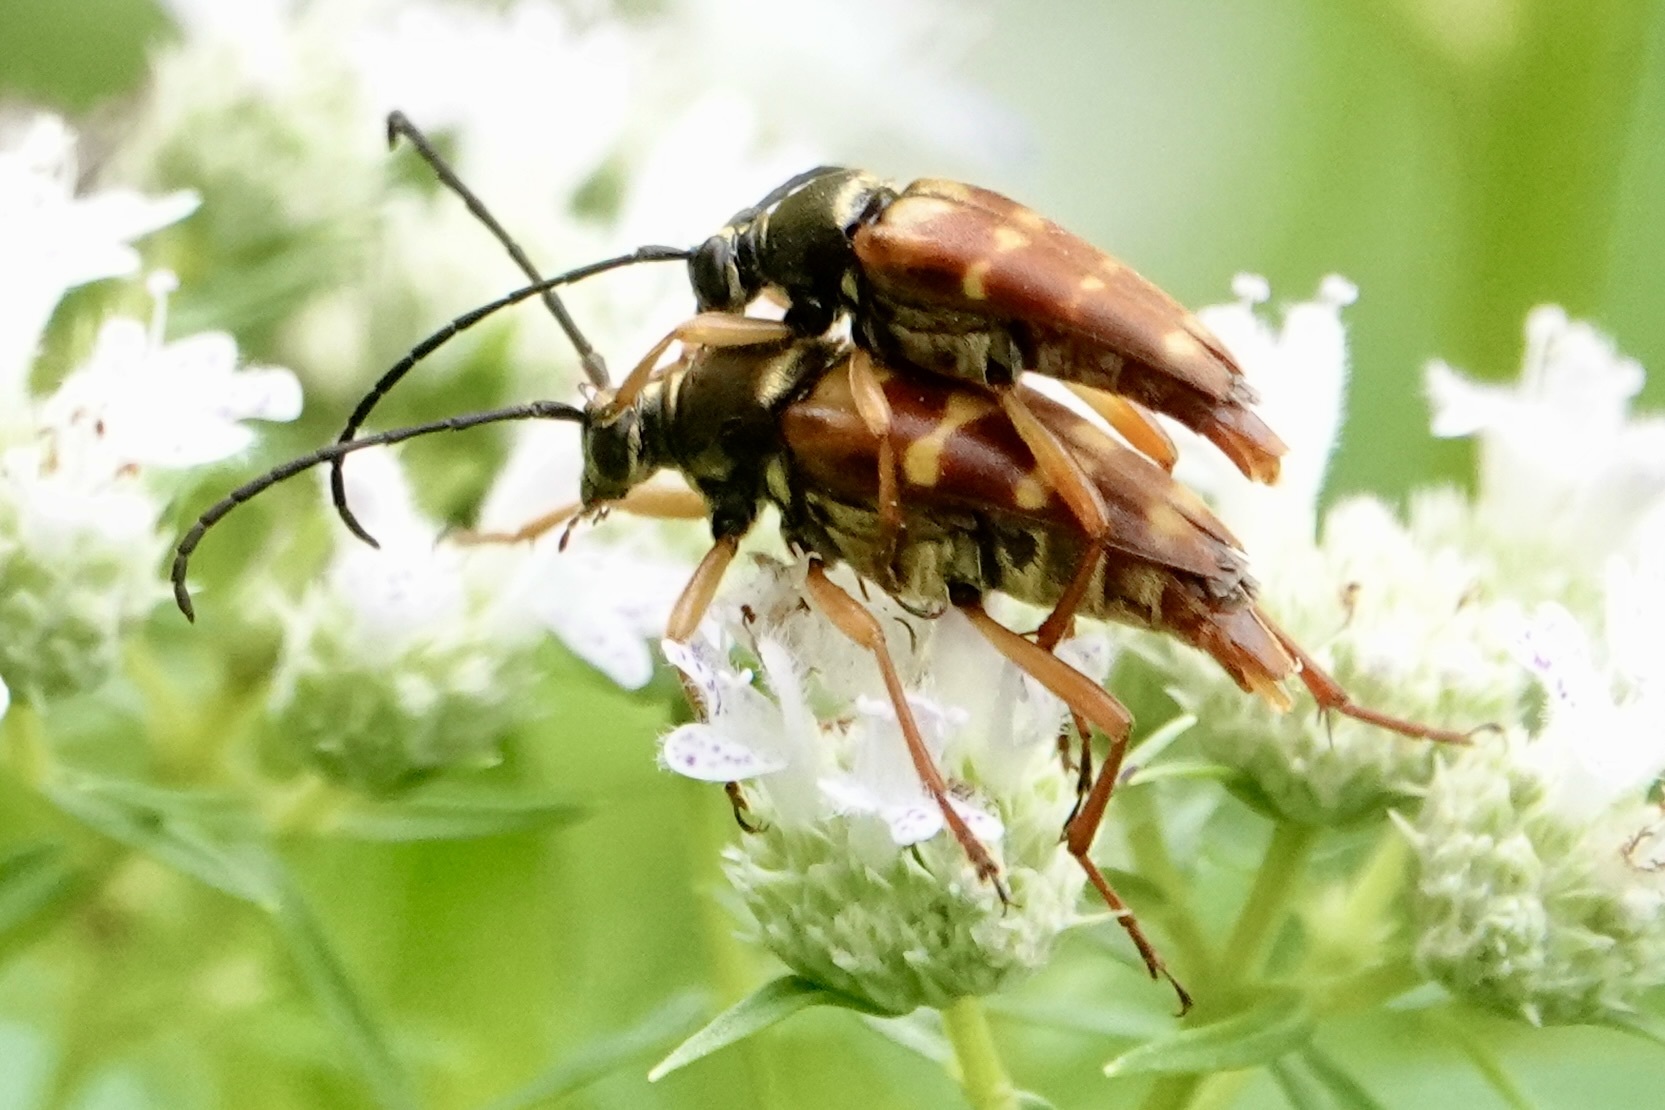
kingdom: Animalia
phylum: Arthropoda
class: Insecta
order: Coleoptera
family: Cerambycidae
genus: Typocerus
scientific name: Typocerus velutinus
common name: Banded longhorn beetle
